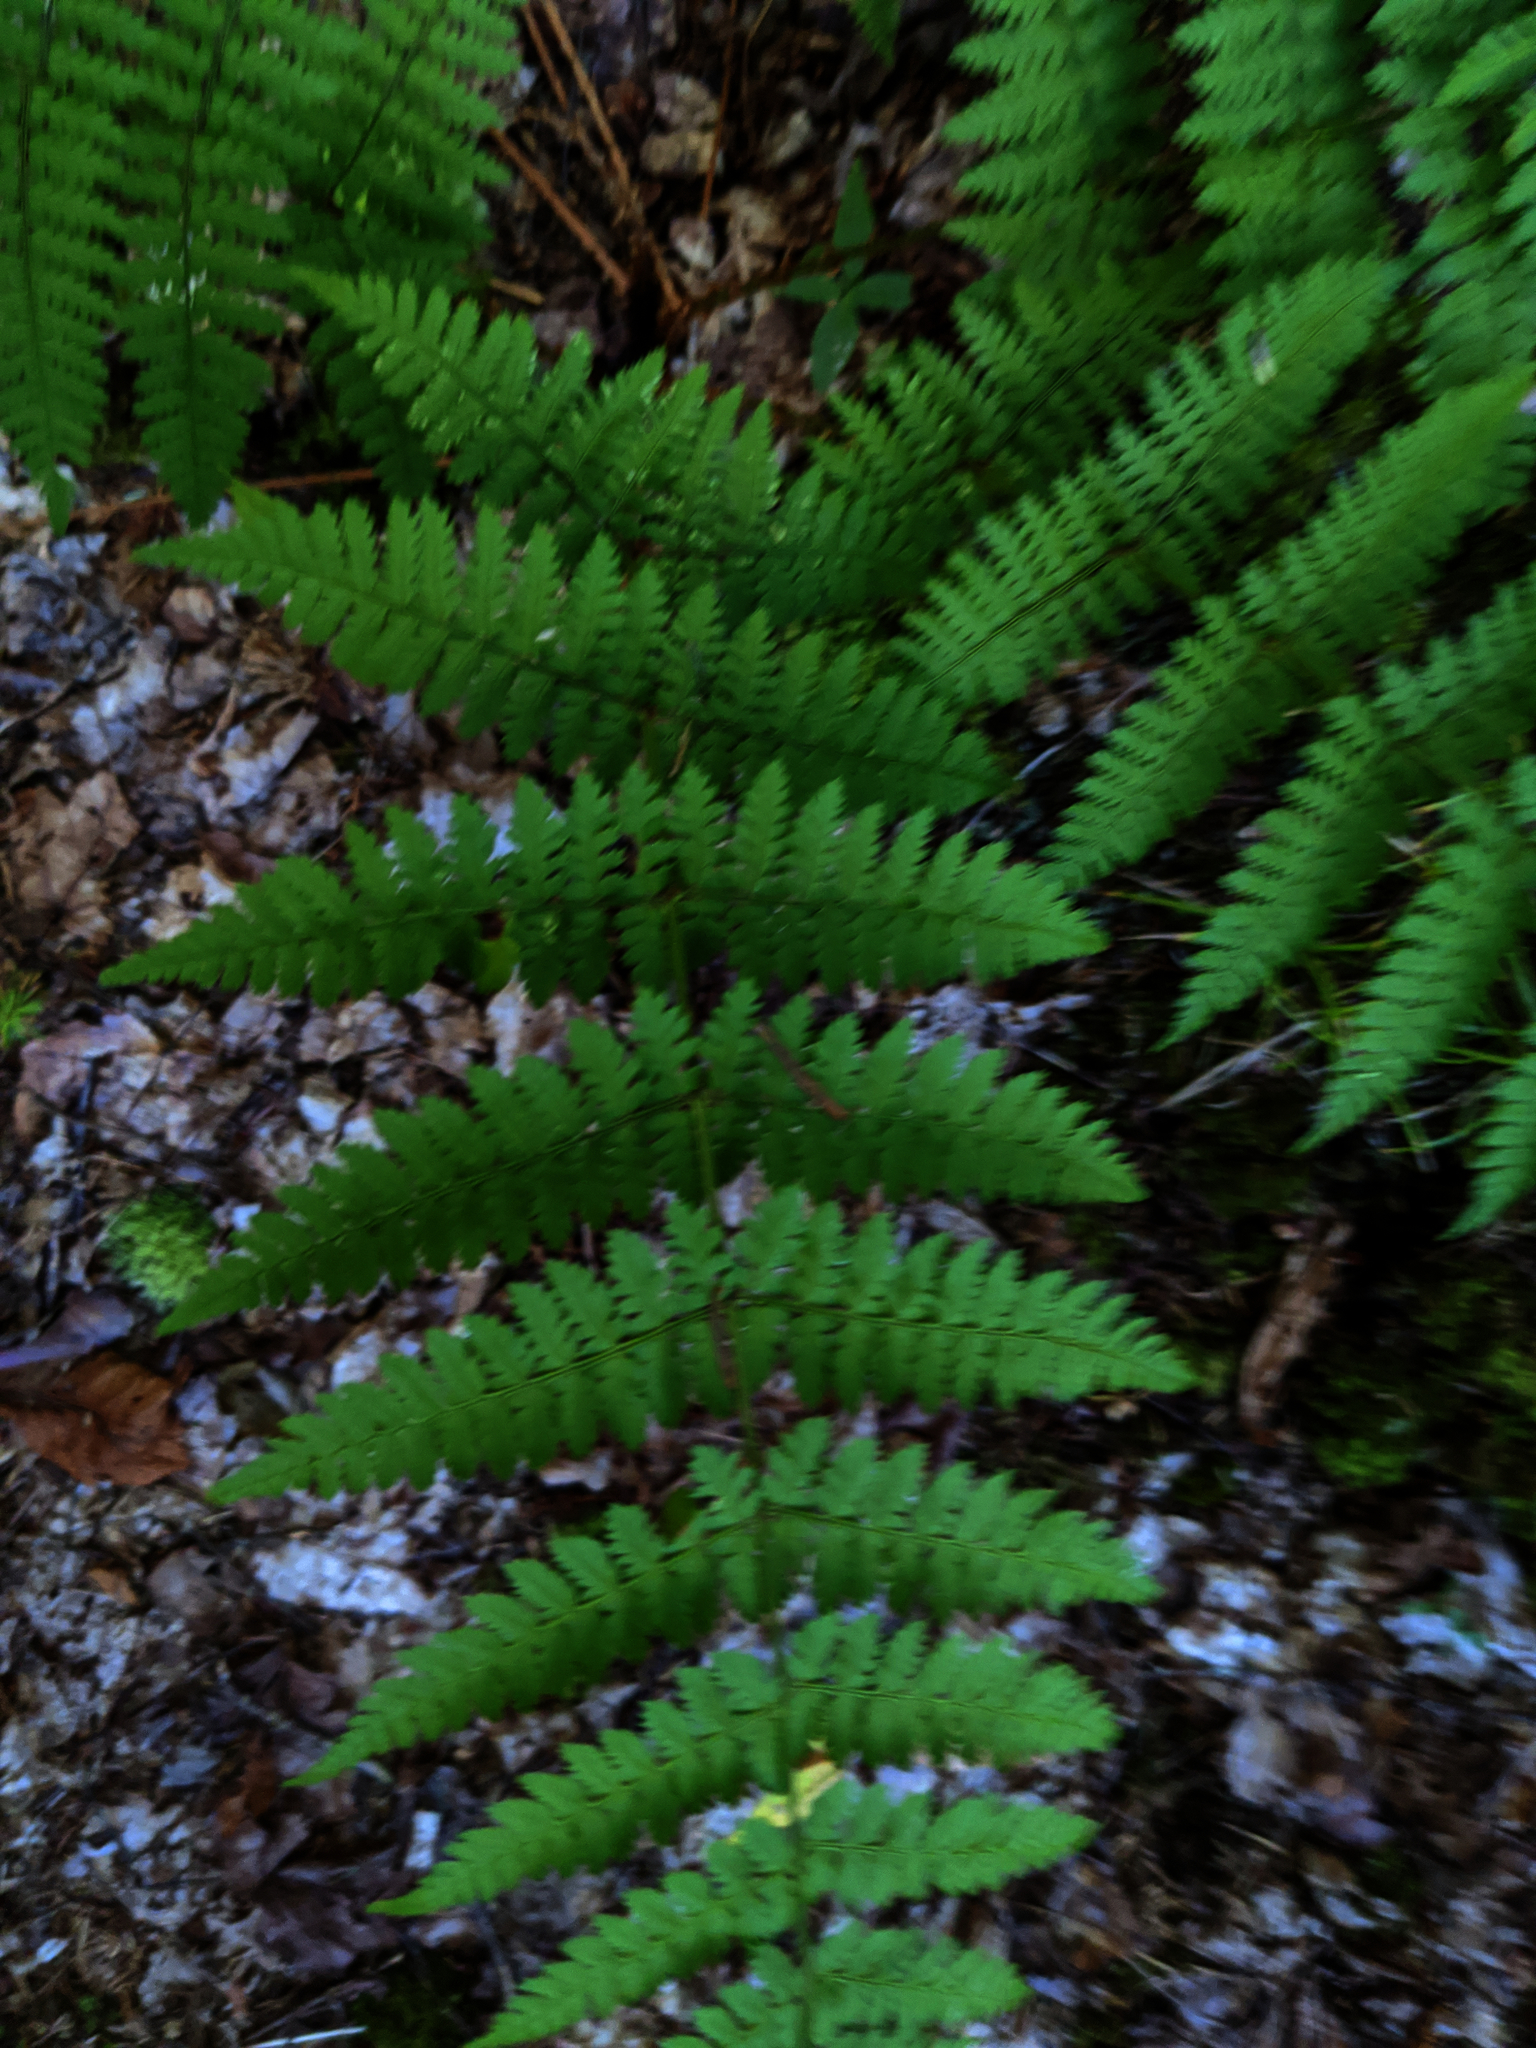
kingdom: Plantae
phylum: Tracheophyta
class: Polypodiopsida
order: Polypodiales
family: Dryopteridaceae
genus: Dryopteris
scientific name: Dryopteris intermedia
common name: Evergreen wood fern
